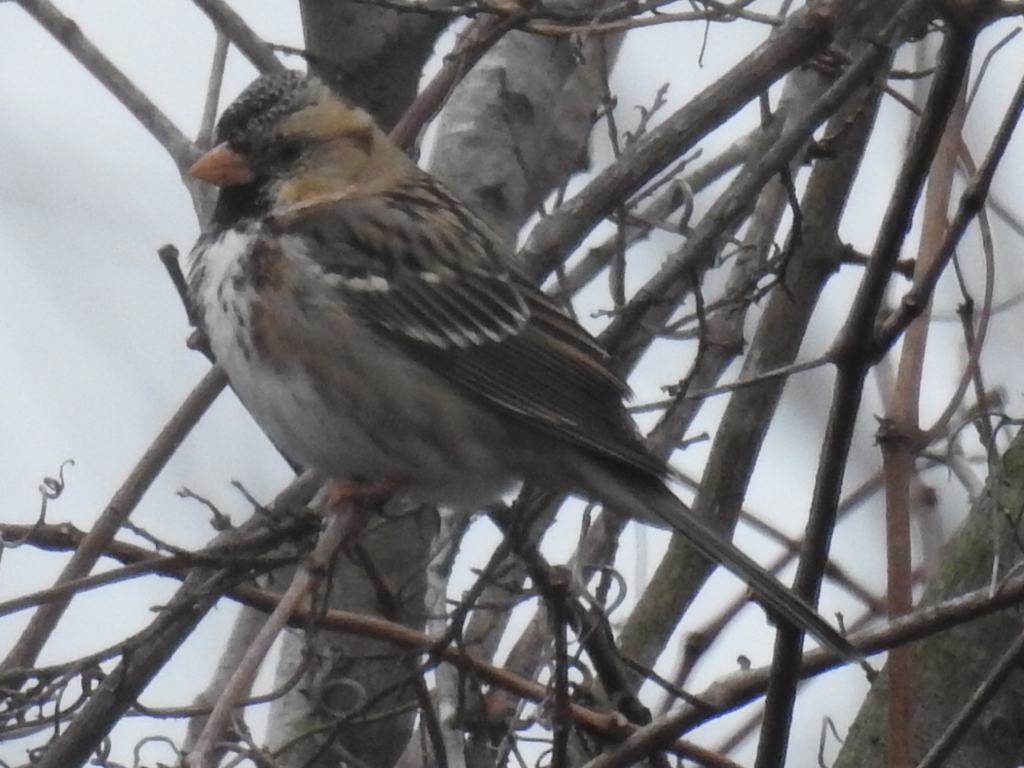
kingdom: Animalia
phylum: Chordata
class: Aves
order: Passeriformes
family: Passerellidae
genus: Zonotrichia
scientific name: Zonotrichia querula
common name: Harris's sparrow
